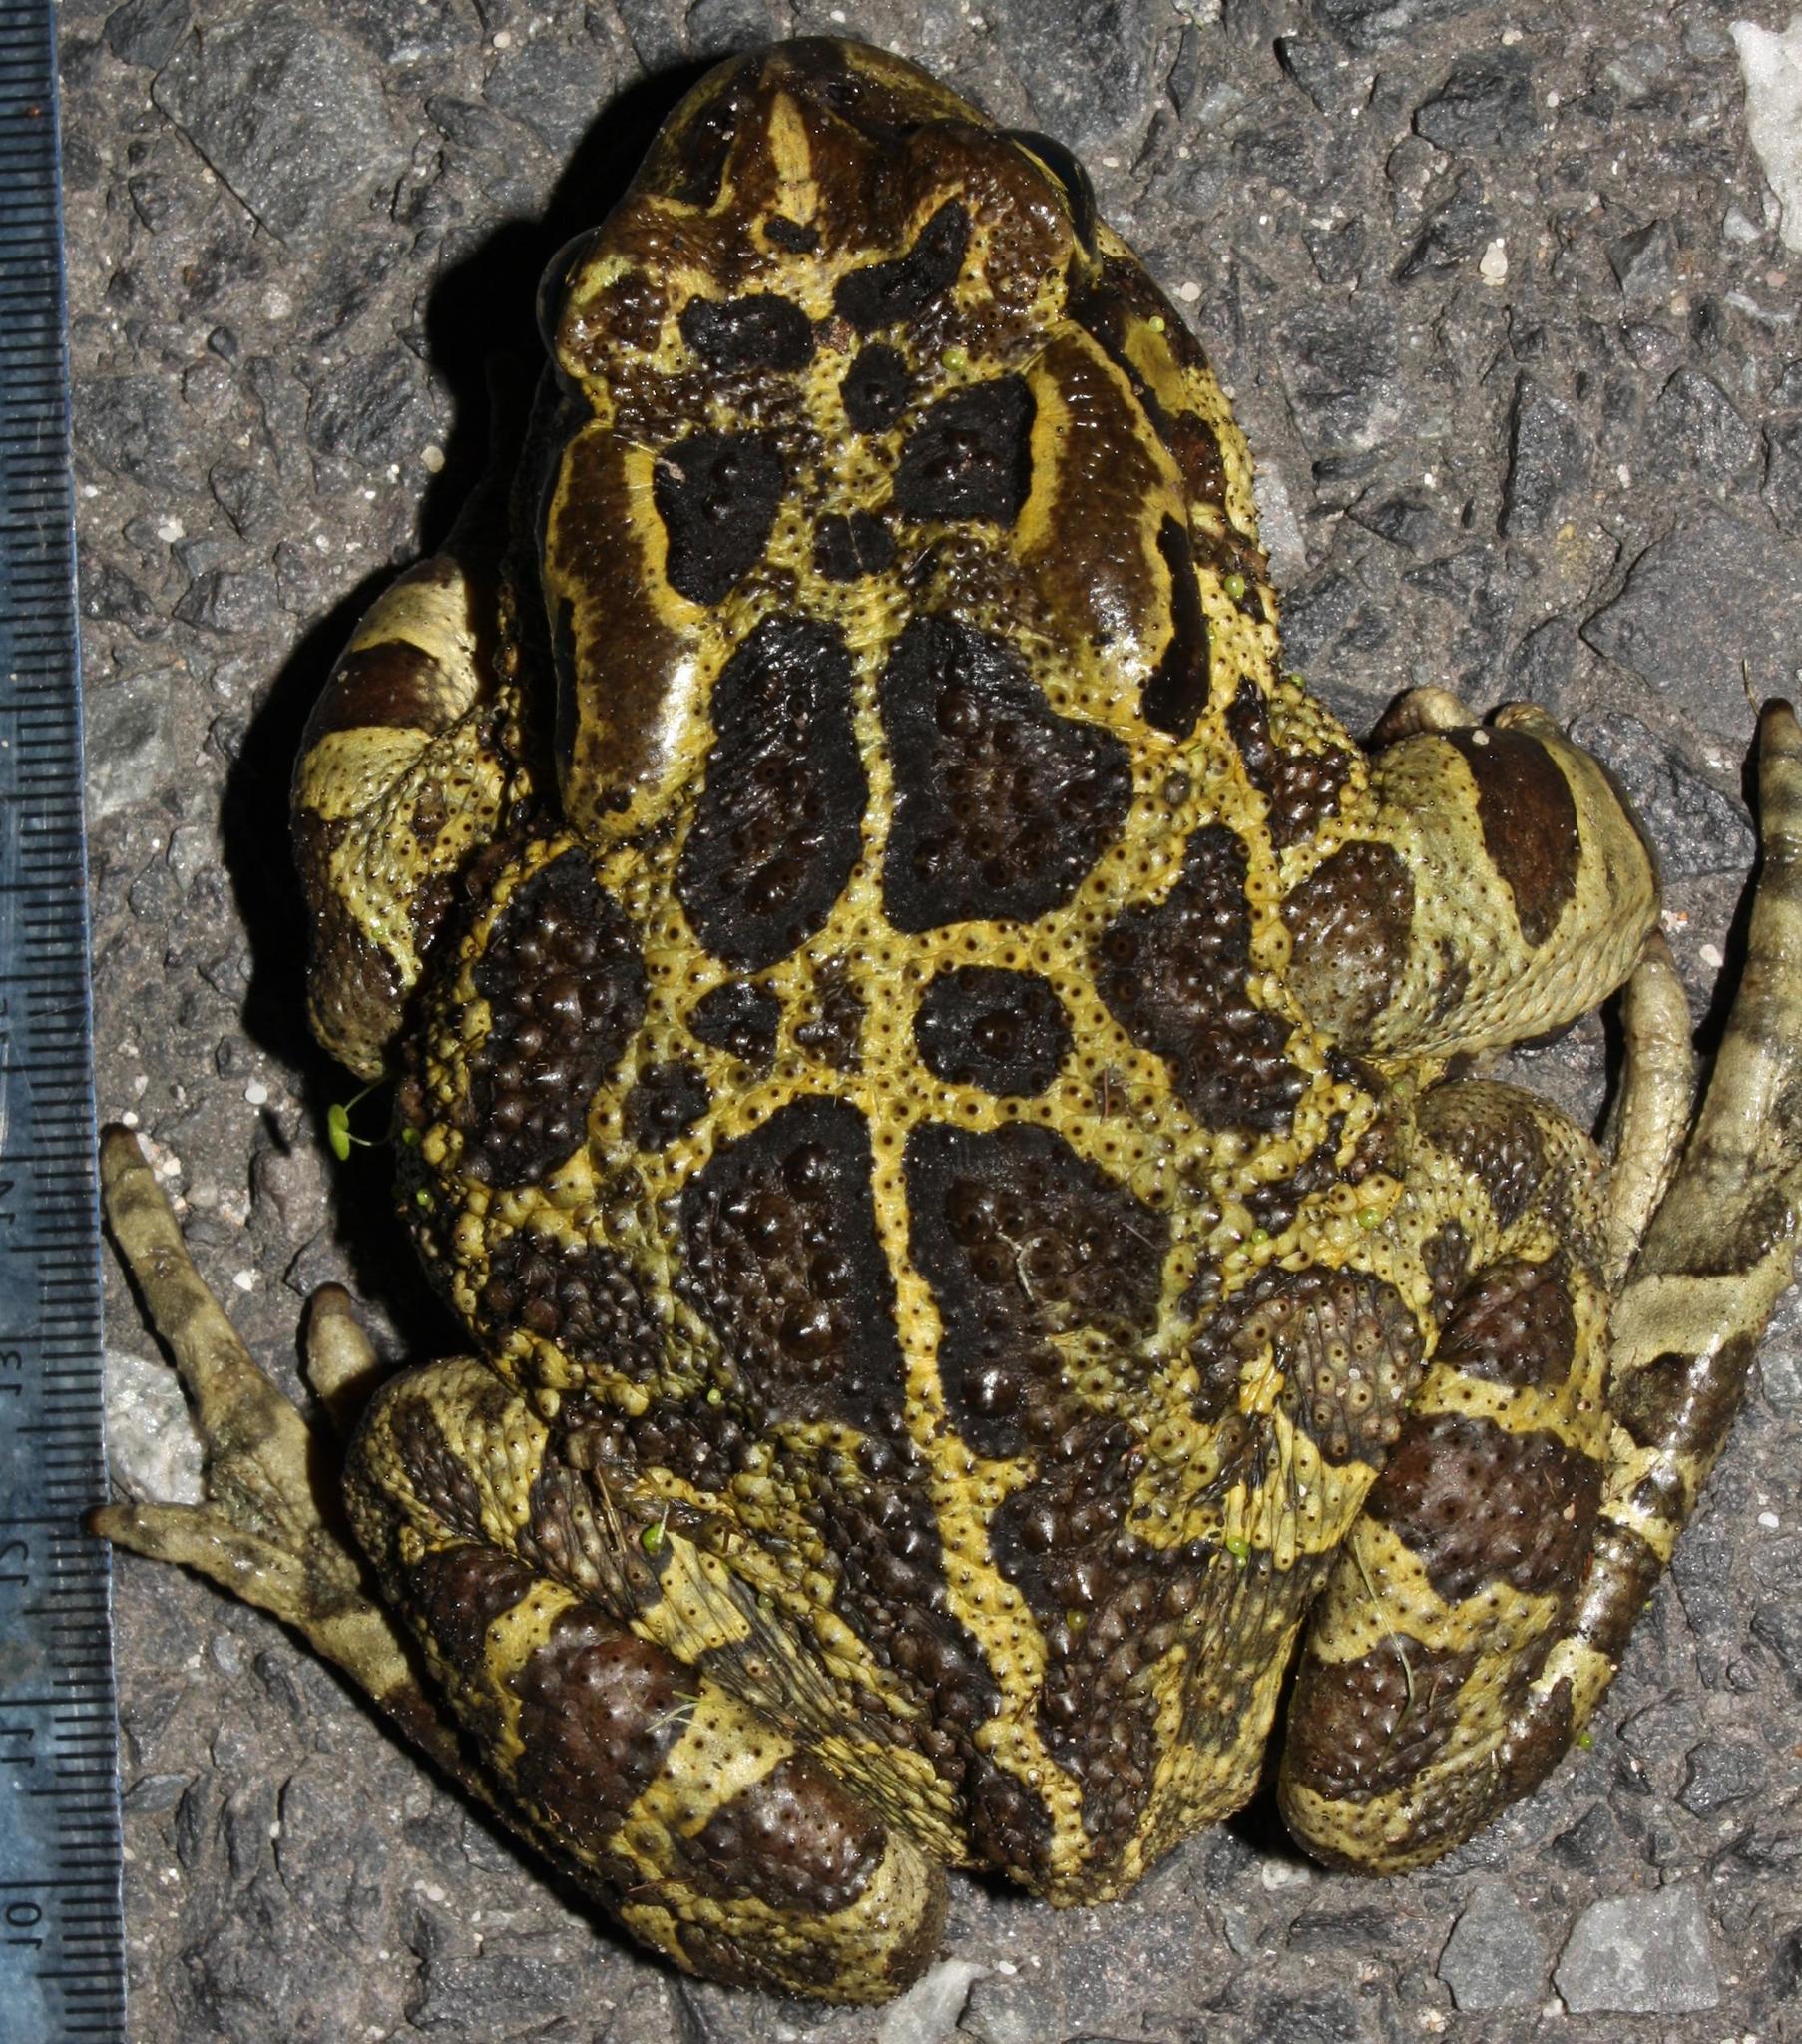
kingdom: Animalia
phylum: Chordata
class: Amphibia
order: Anura
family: Bufonidae
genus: Sclerophrys
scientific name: Sclerophrys pantherina
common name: Panther toad
